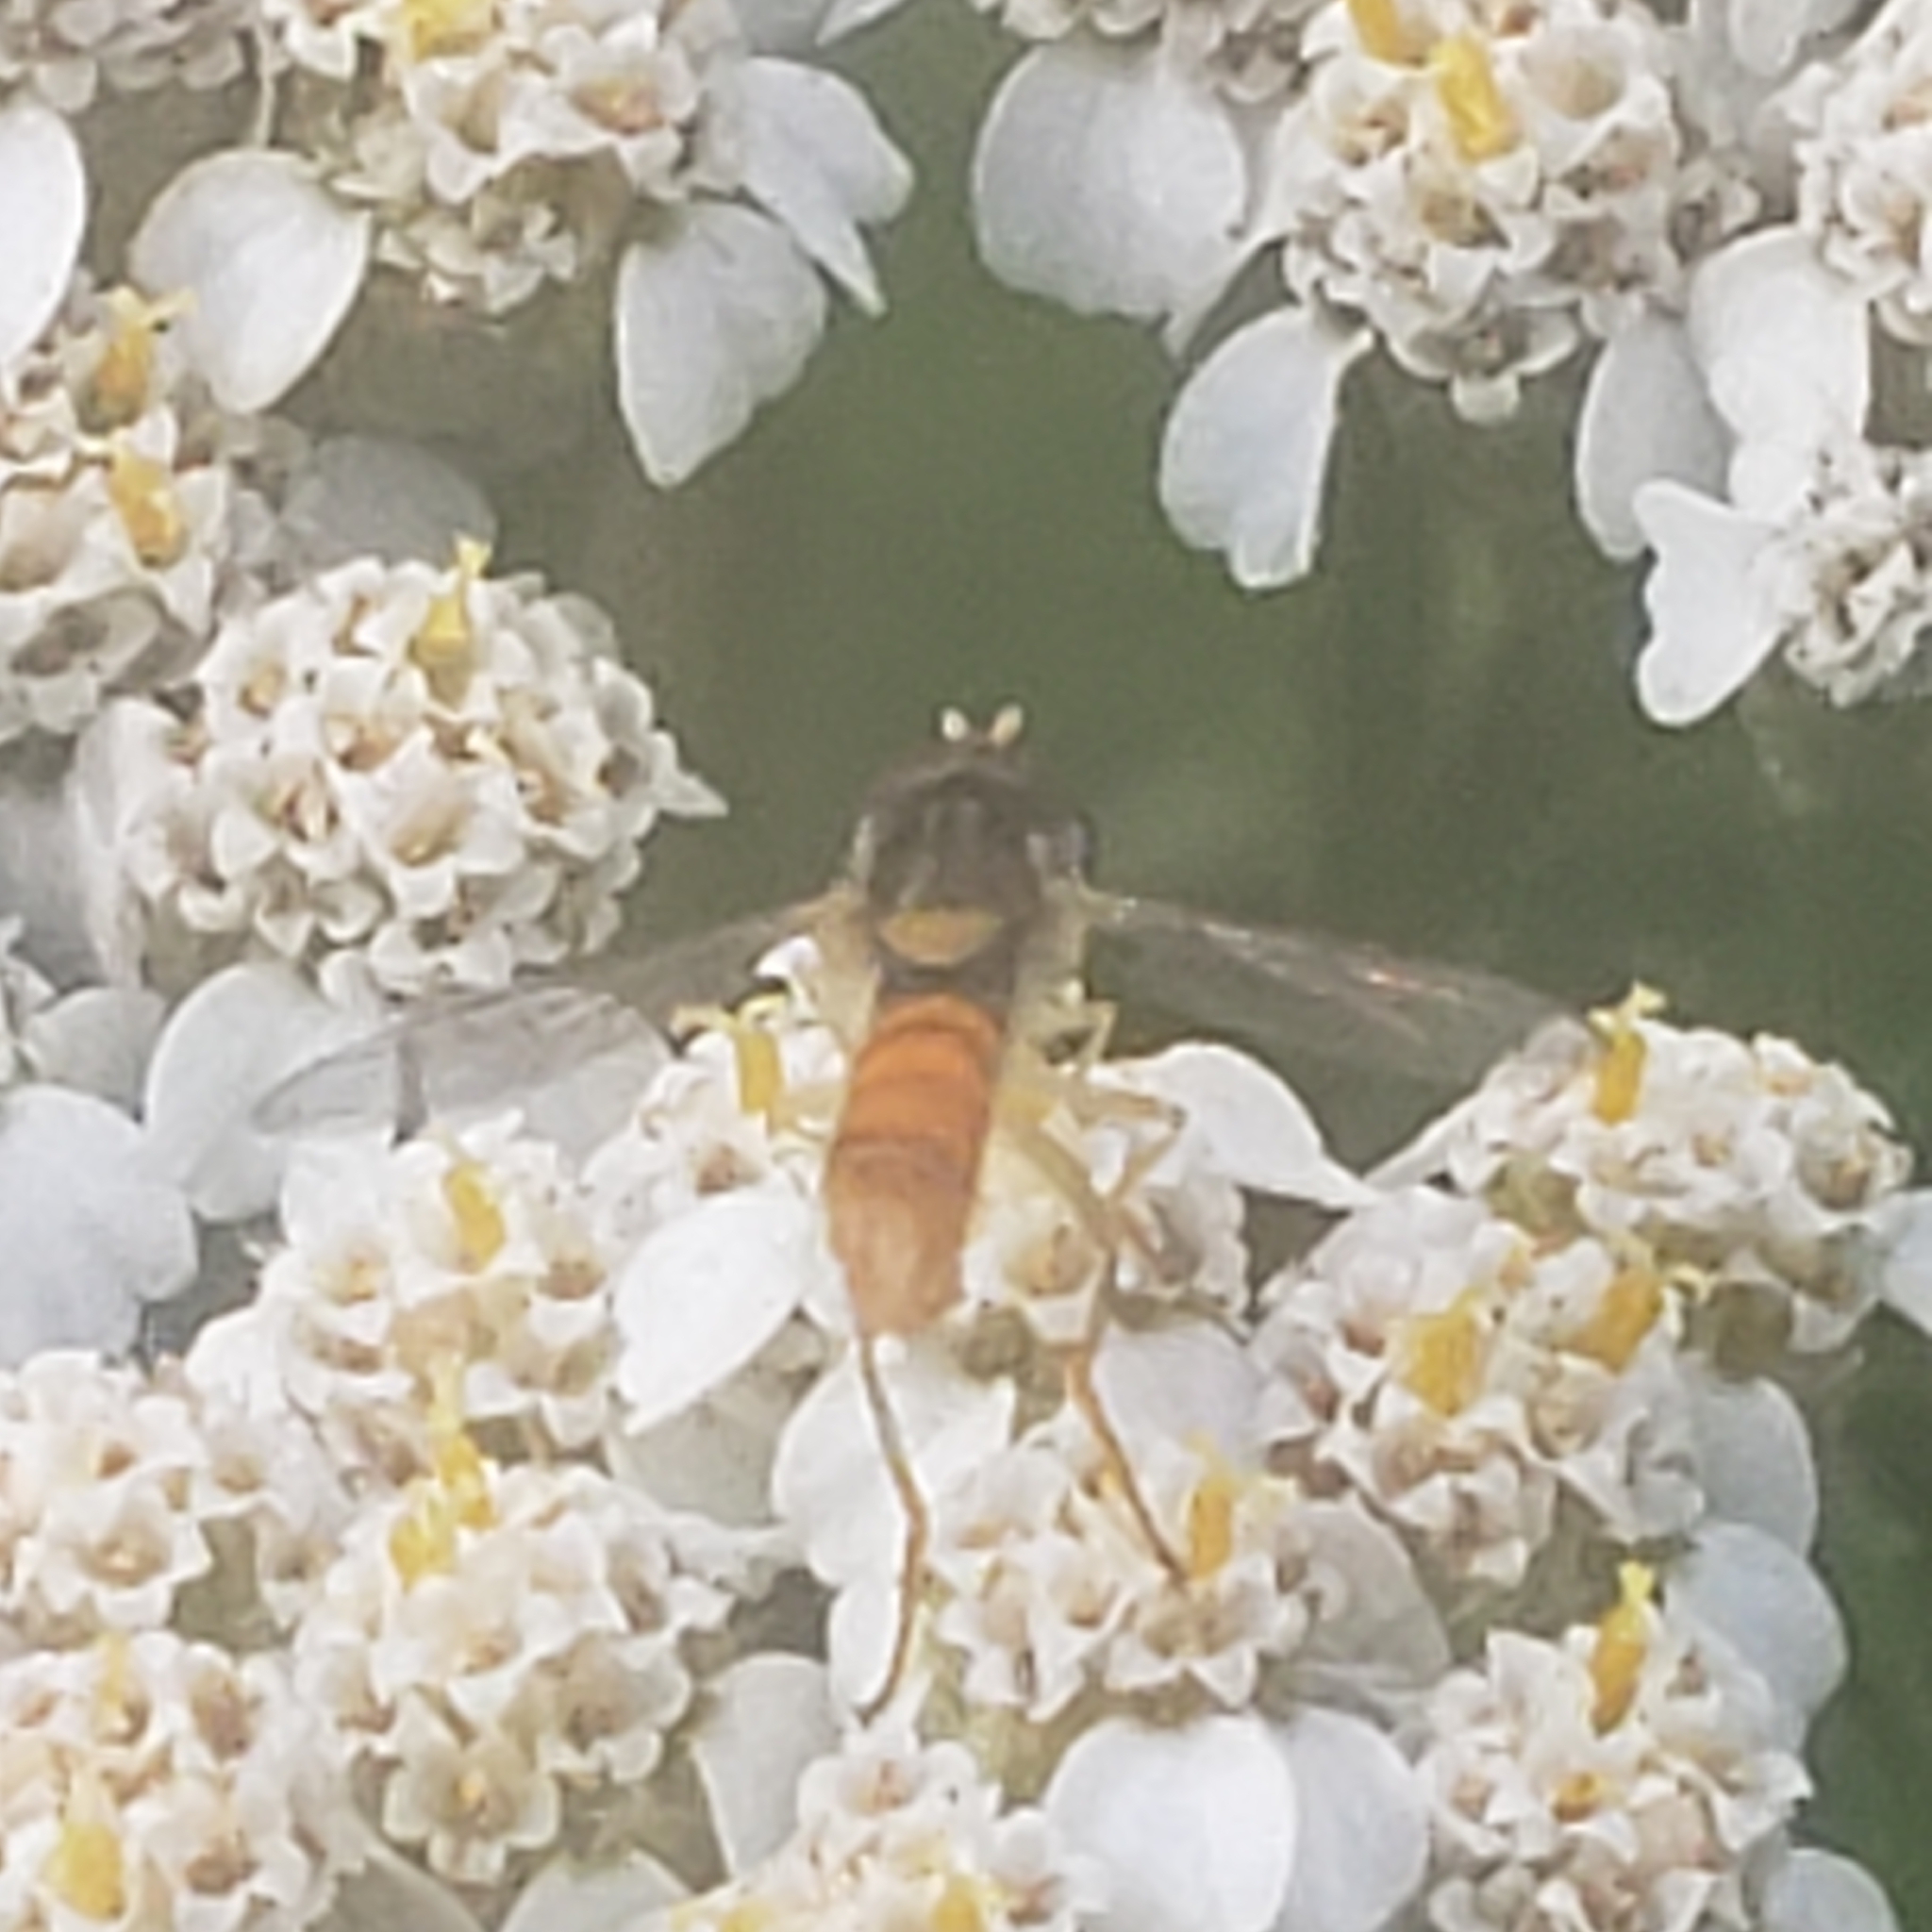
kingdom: Animalia
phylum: Arthropoda
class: Insecta
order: Diptera
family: Syrphidae
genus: Sphaerophoria
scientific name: Sphaerophoria contigua
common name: Tufted globetail
